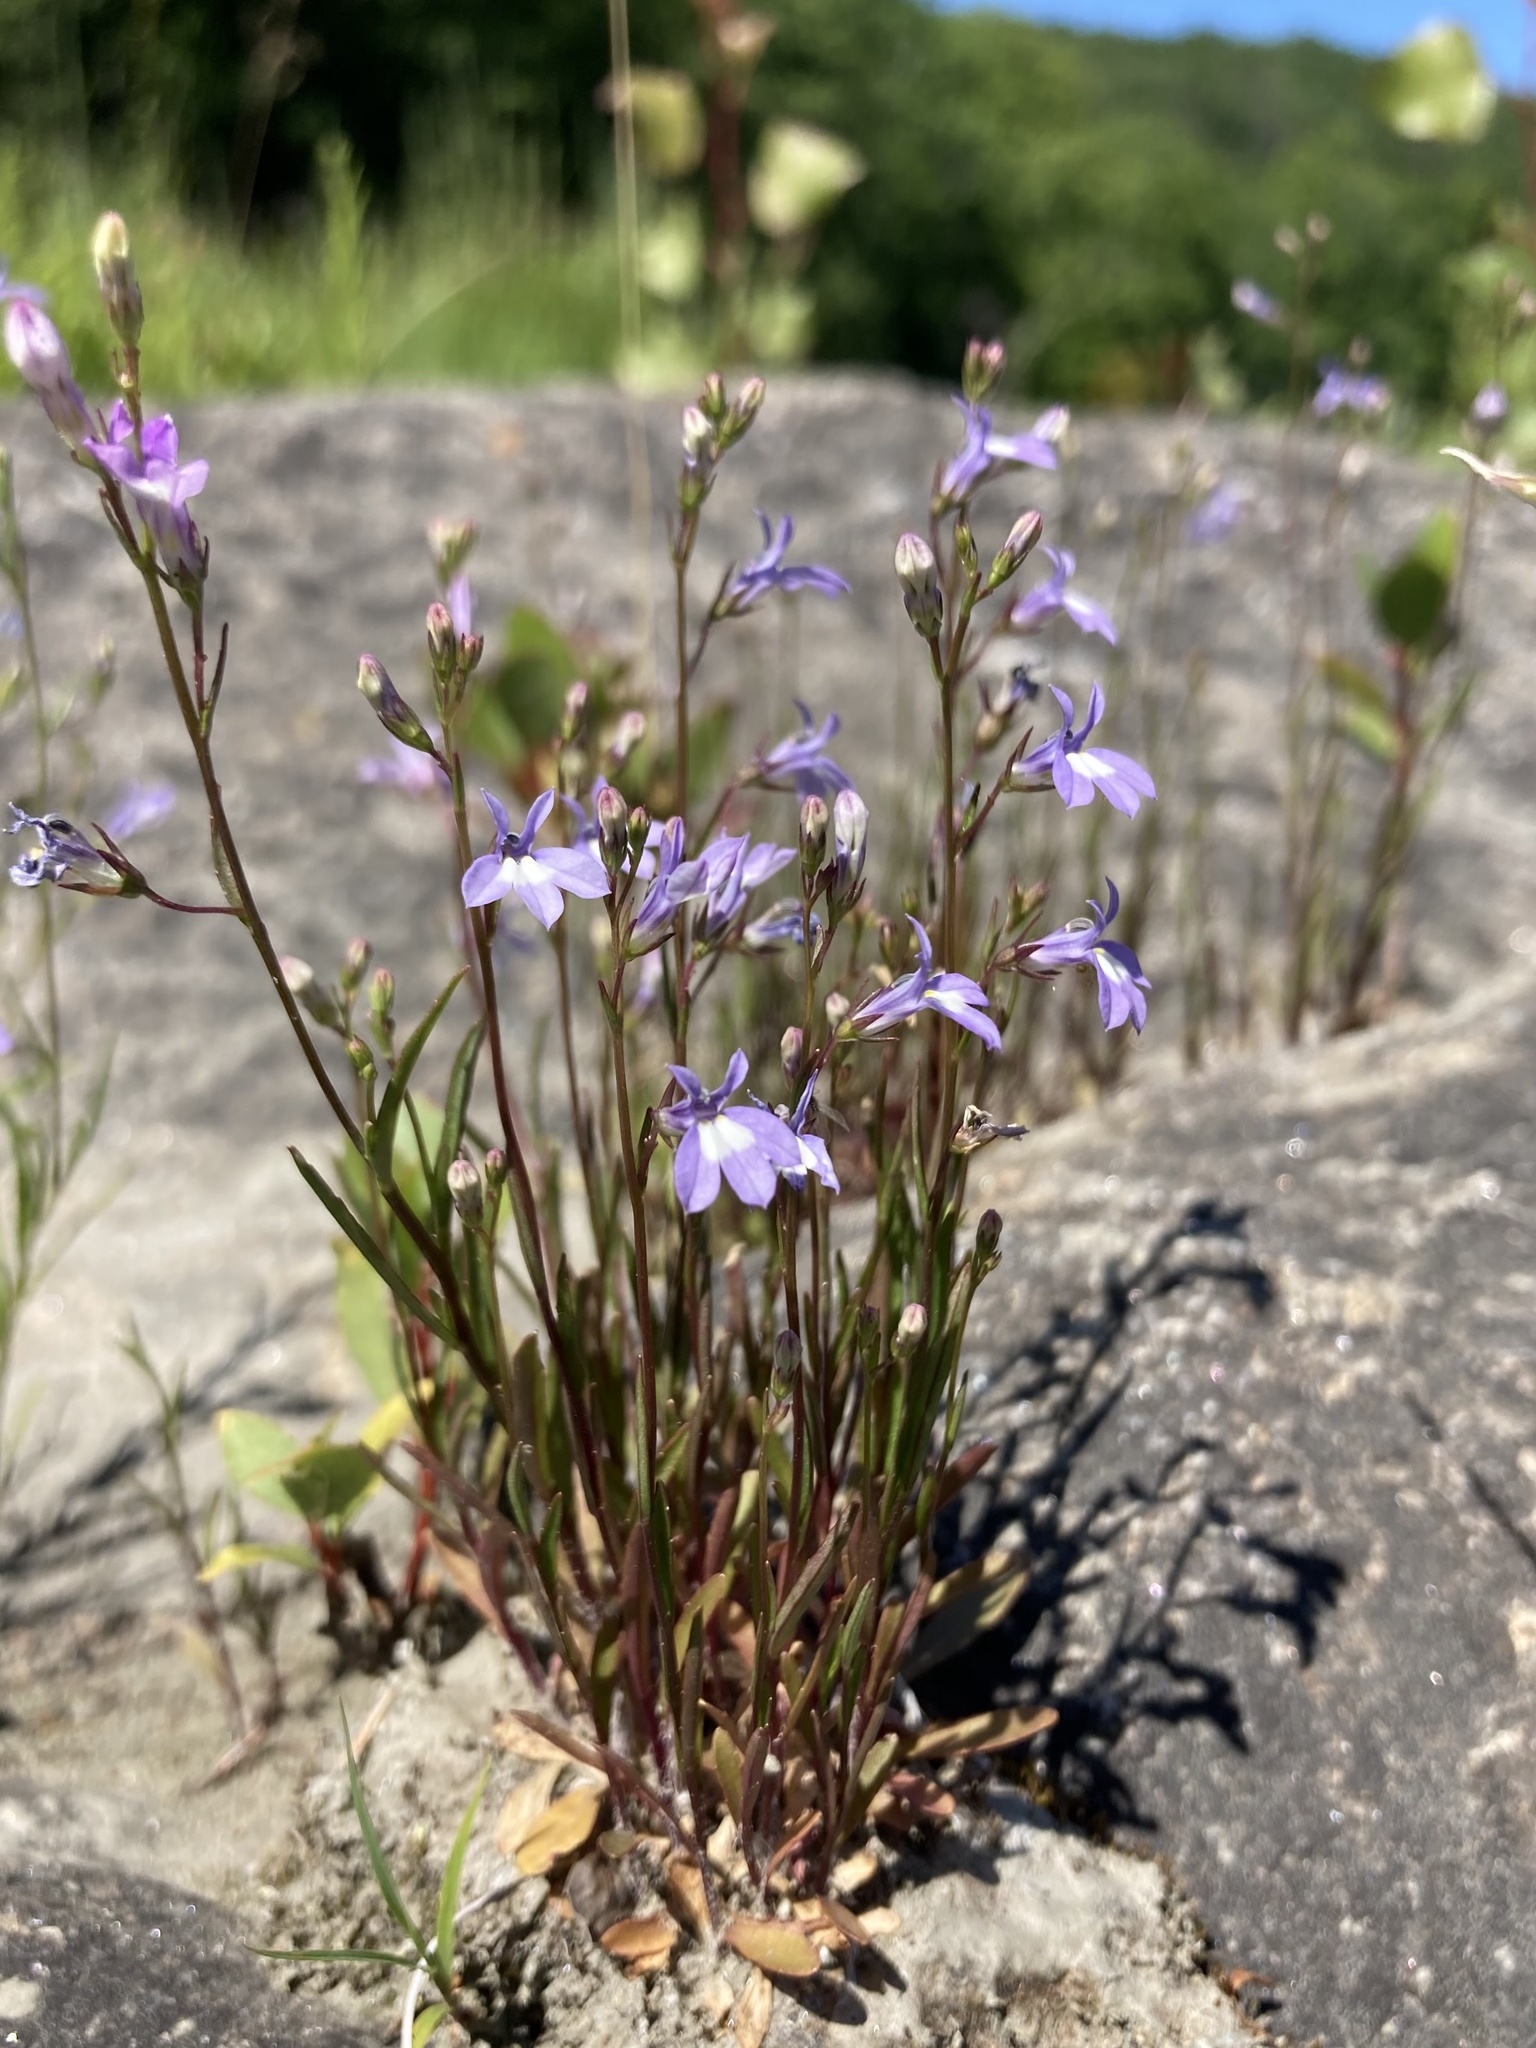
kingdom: Plantae
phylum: Tracheophyta
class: Magnoliopsida
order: Asterales
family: Campanulaceae
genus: Lobelia
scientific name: Lobelia kalmii
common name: Kalm's lobelia
